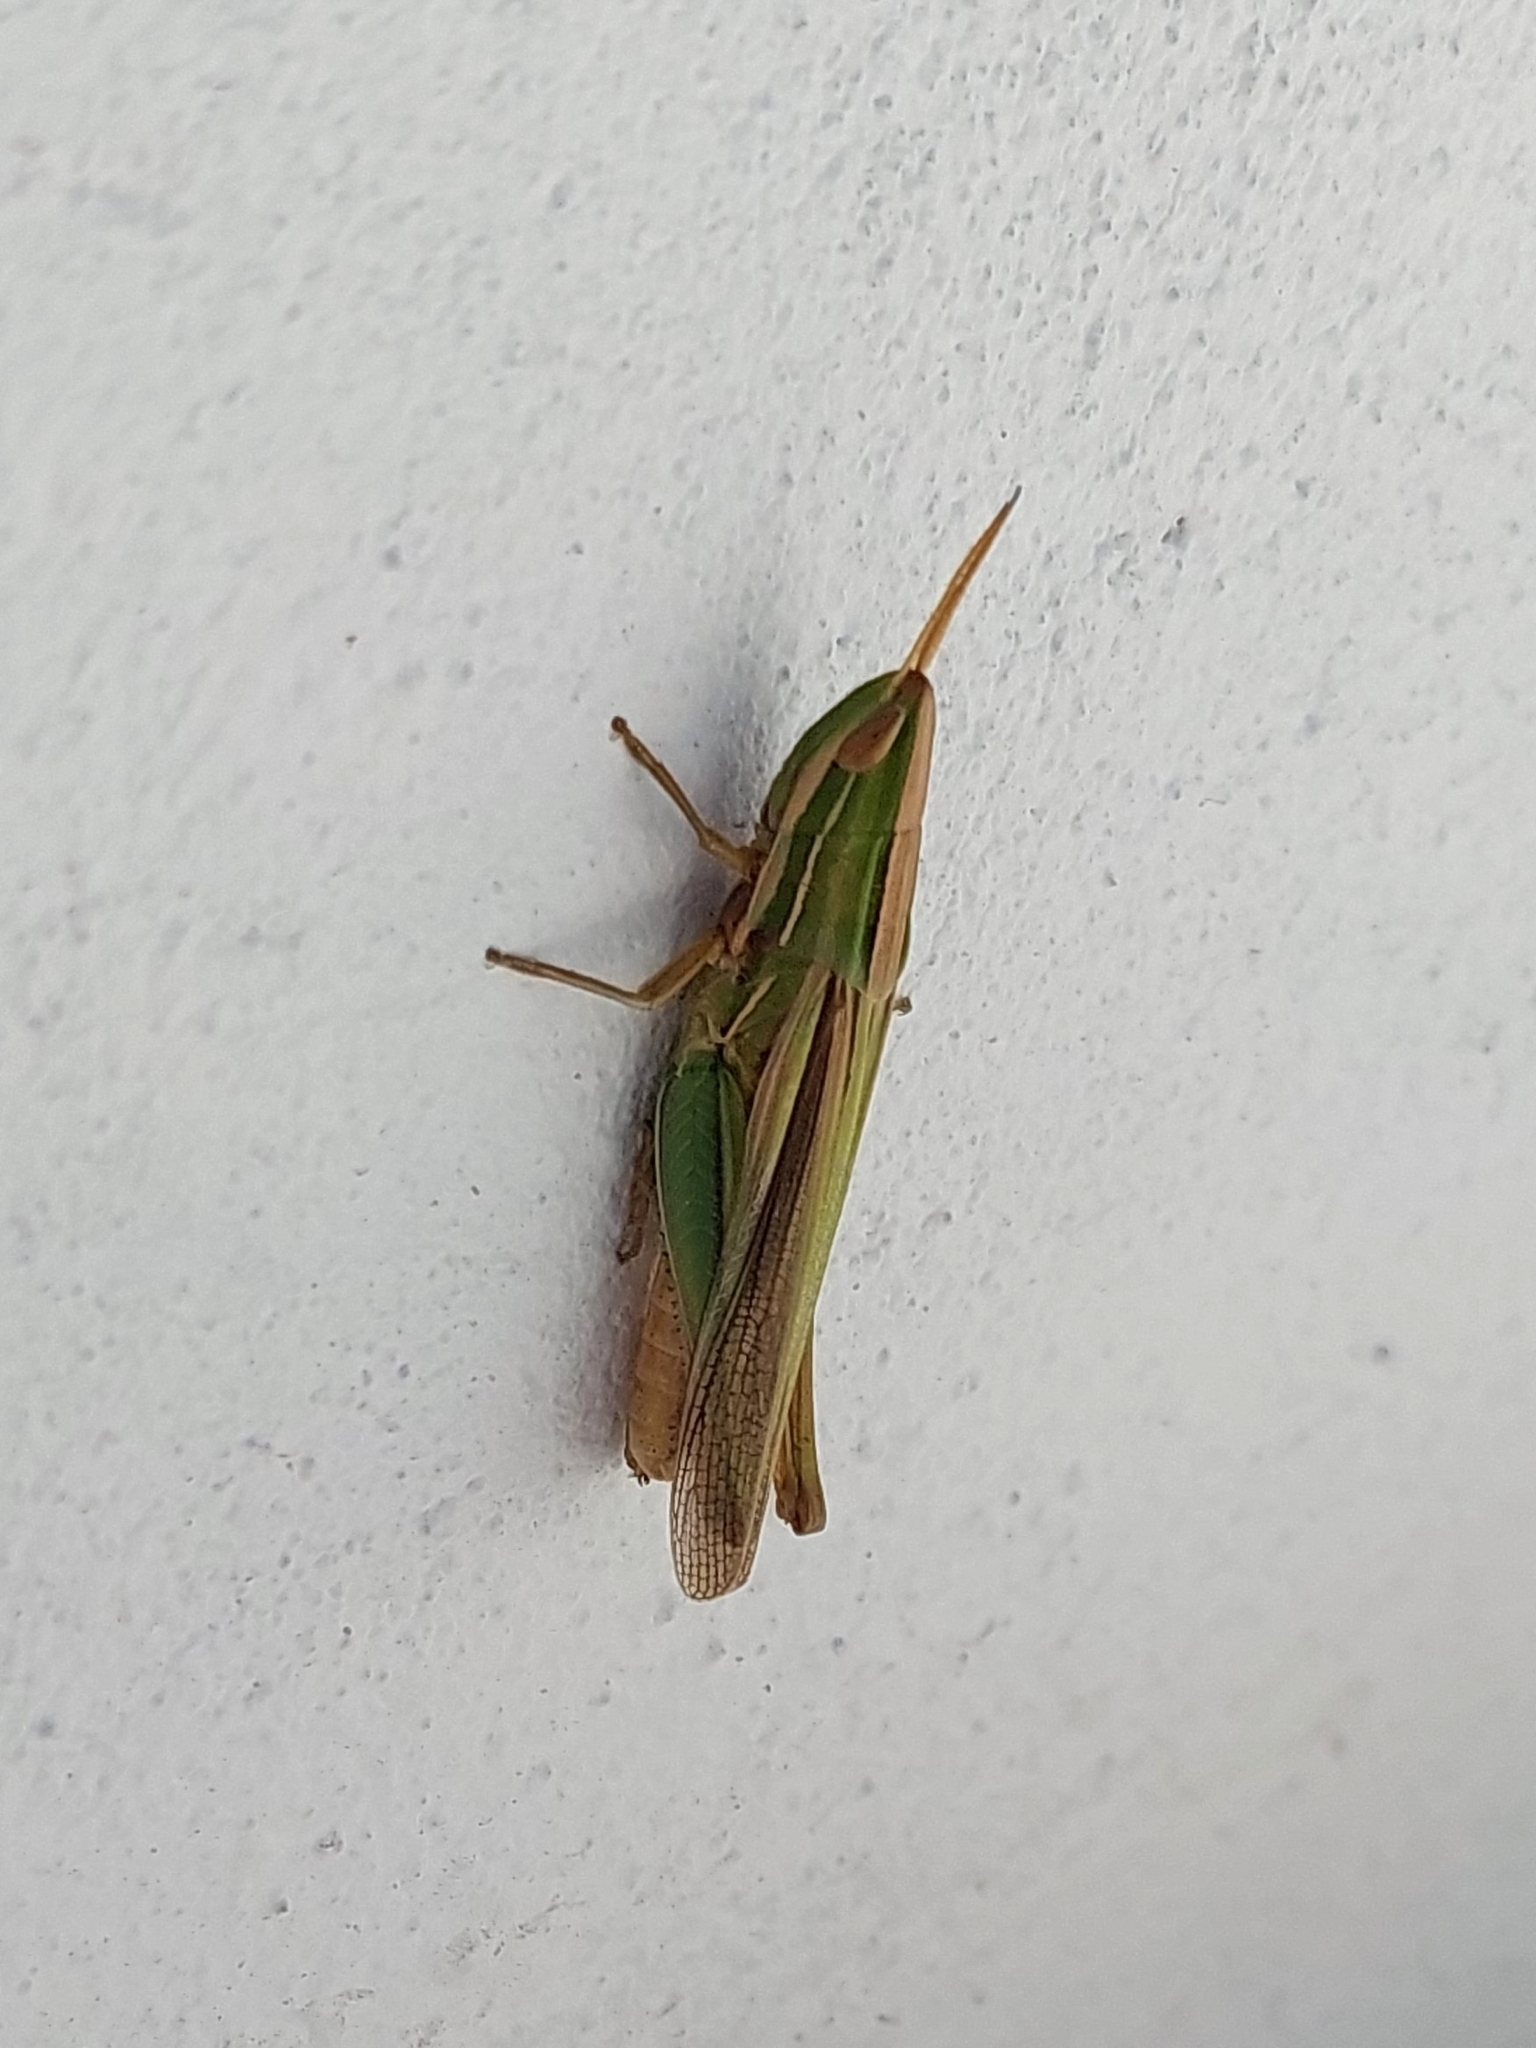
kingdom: Animalia
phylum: Arthropoda
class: Insecta
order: Orthoptera
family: Acrididae
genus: Sinipta
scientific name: Sinipta dalmani
